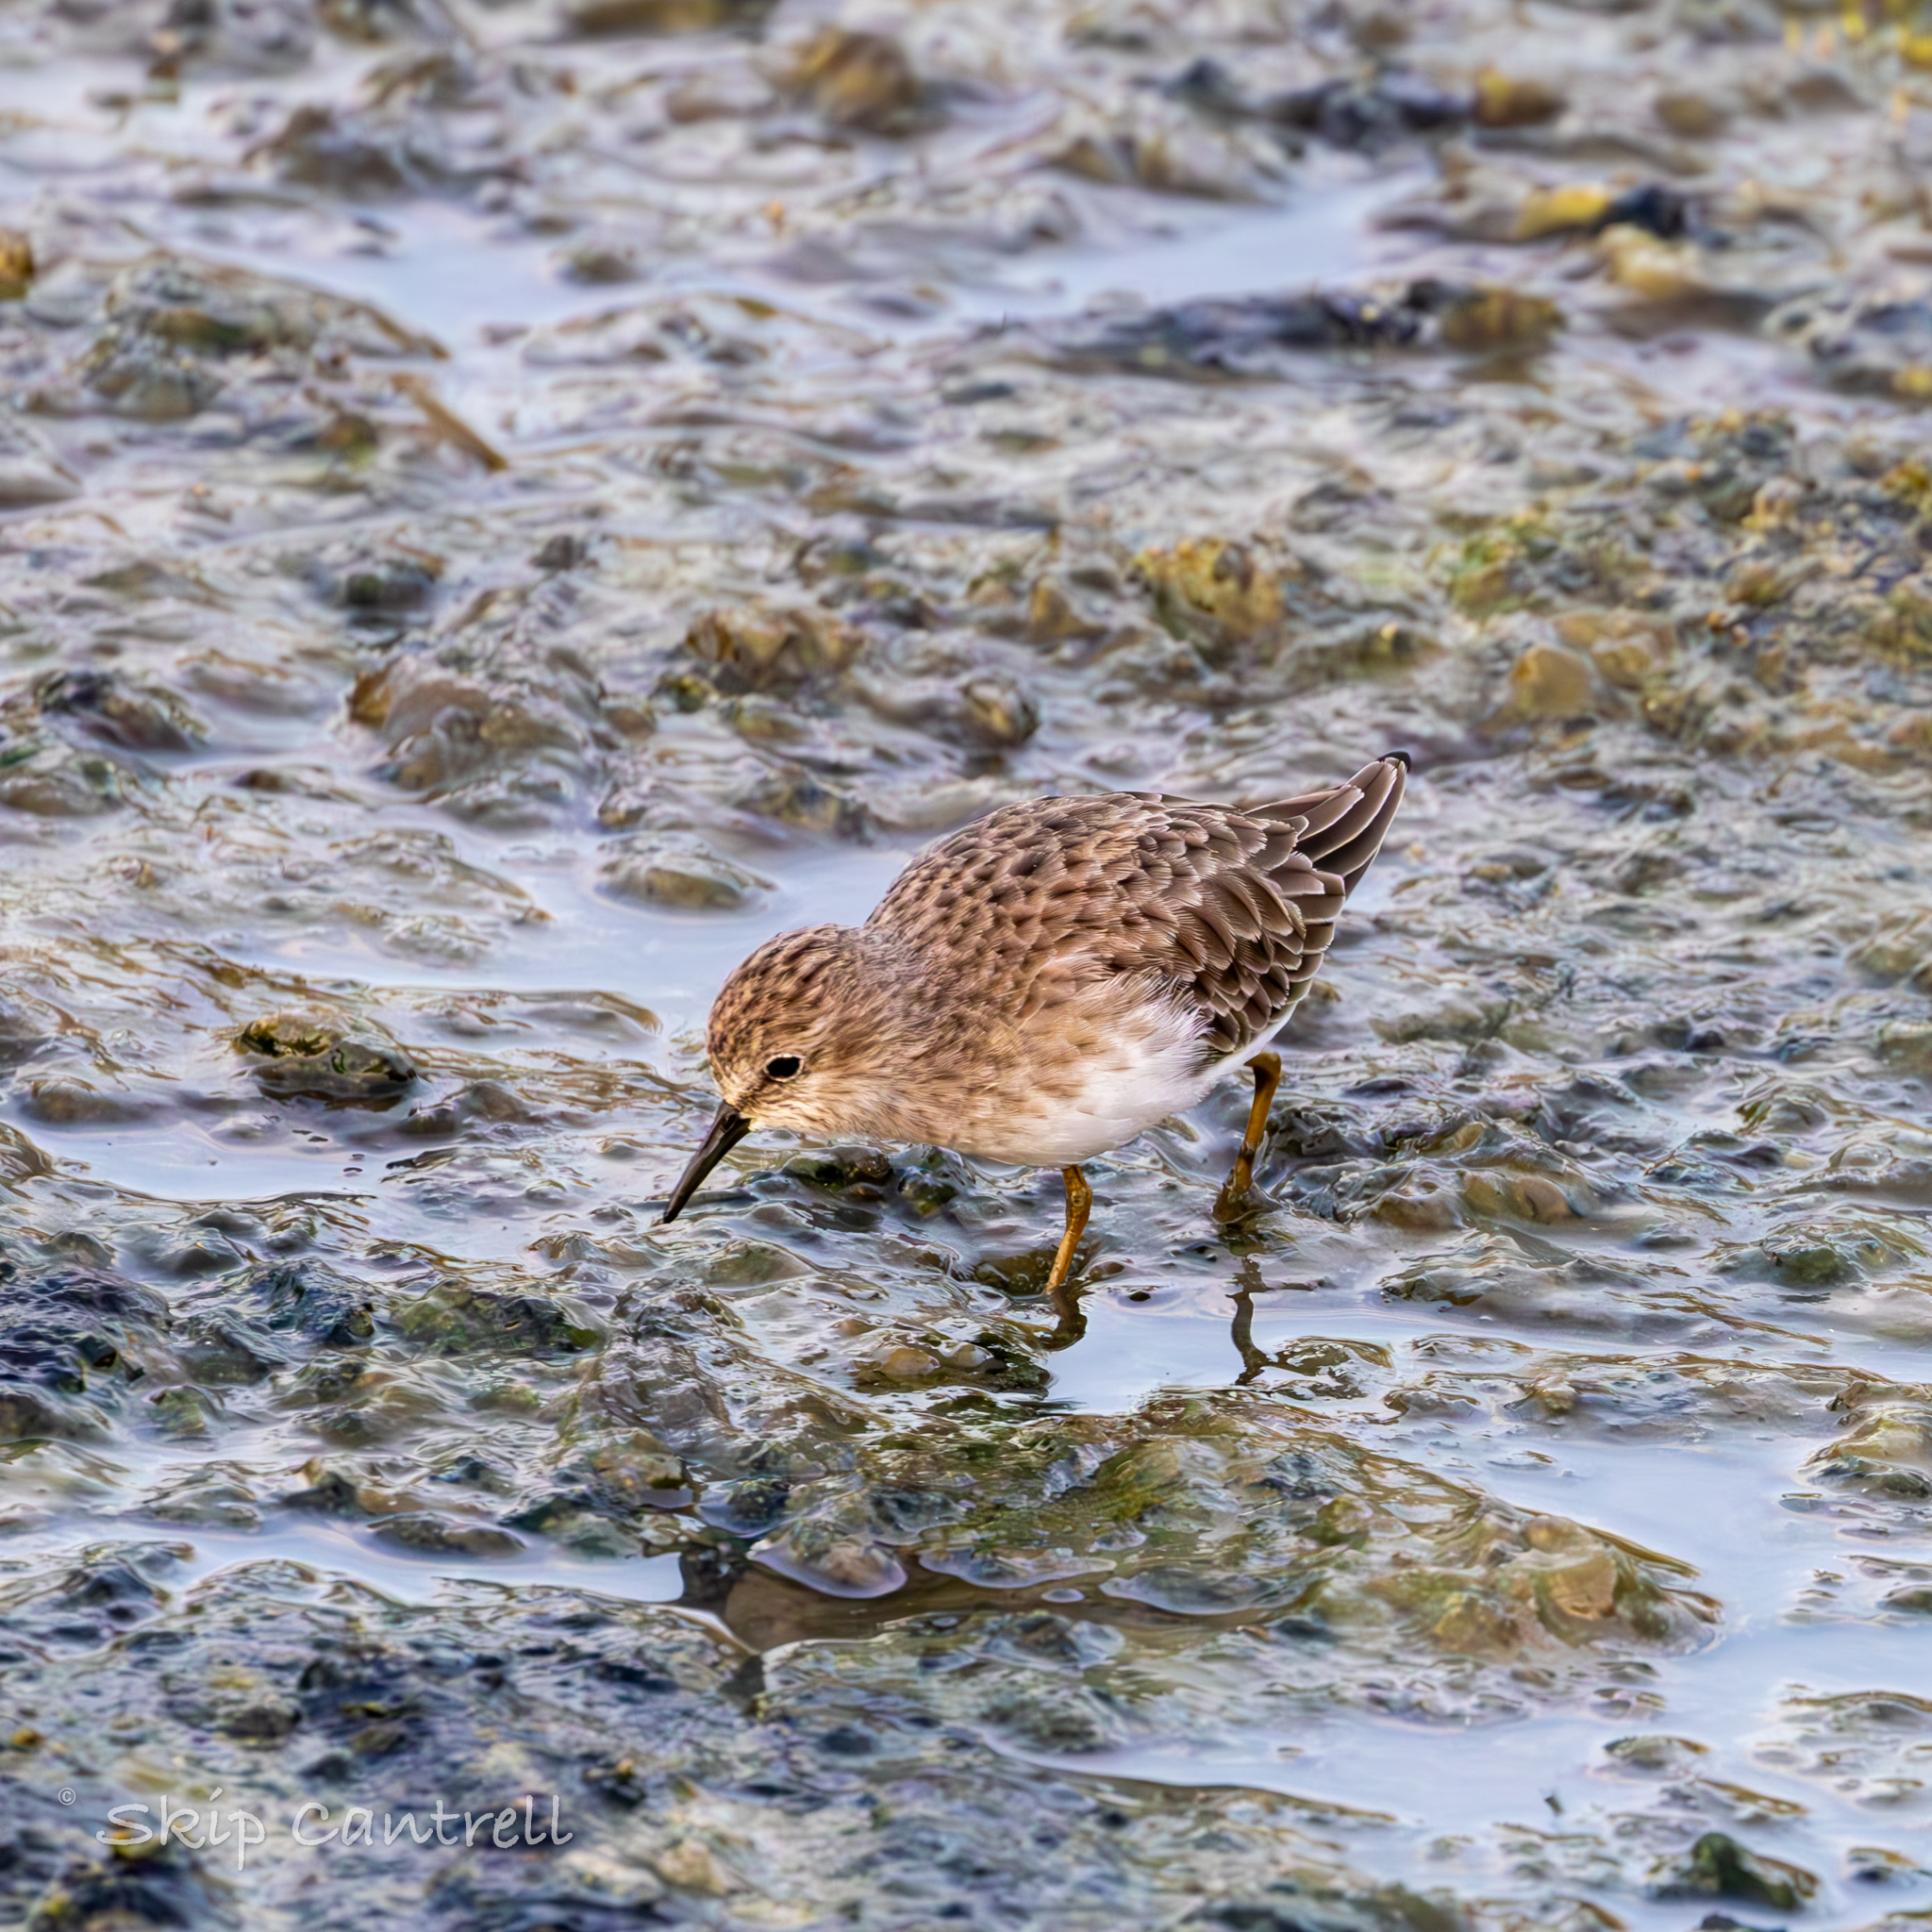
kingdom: Animalia
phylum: Chordata
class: Aves
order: Charadriiformes
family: Scolopacidae
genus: Calidris
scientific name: Calidris minutilla
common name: Least sandpiper
